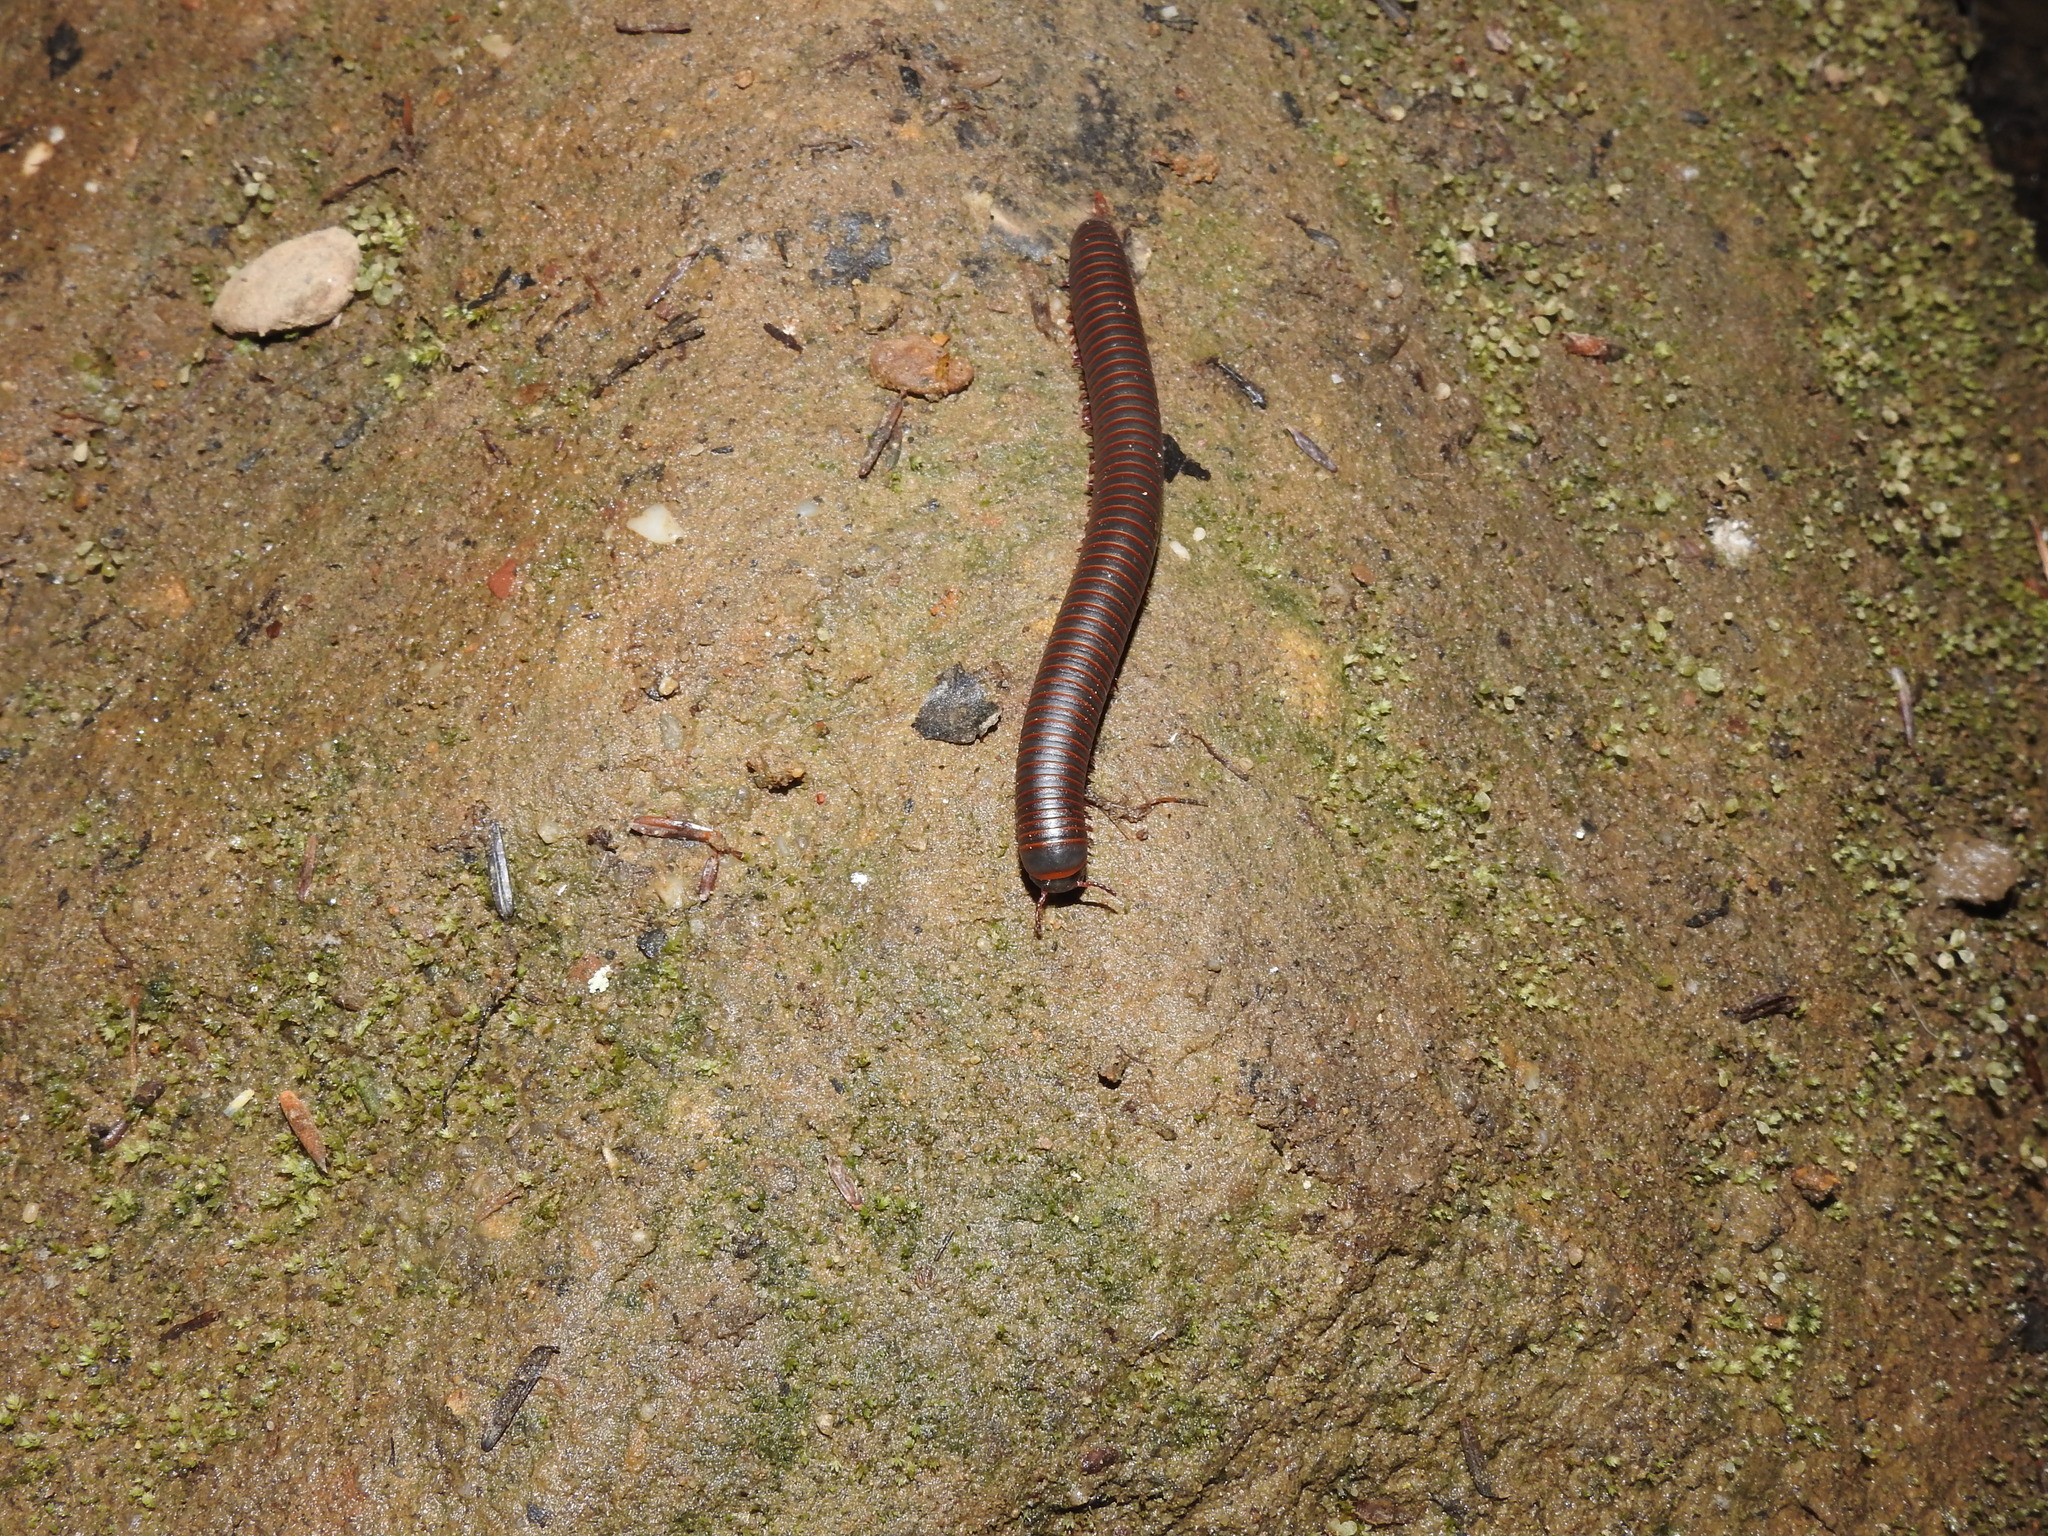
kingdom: Animalia
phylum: Arthropoda
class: Diplopoda
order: Spirobolida
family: Spirobolidae
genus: Narceus
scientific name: Narceus
